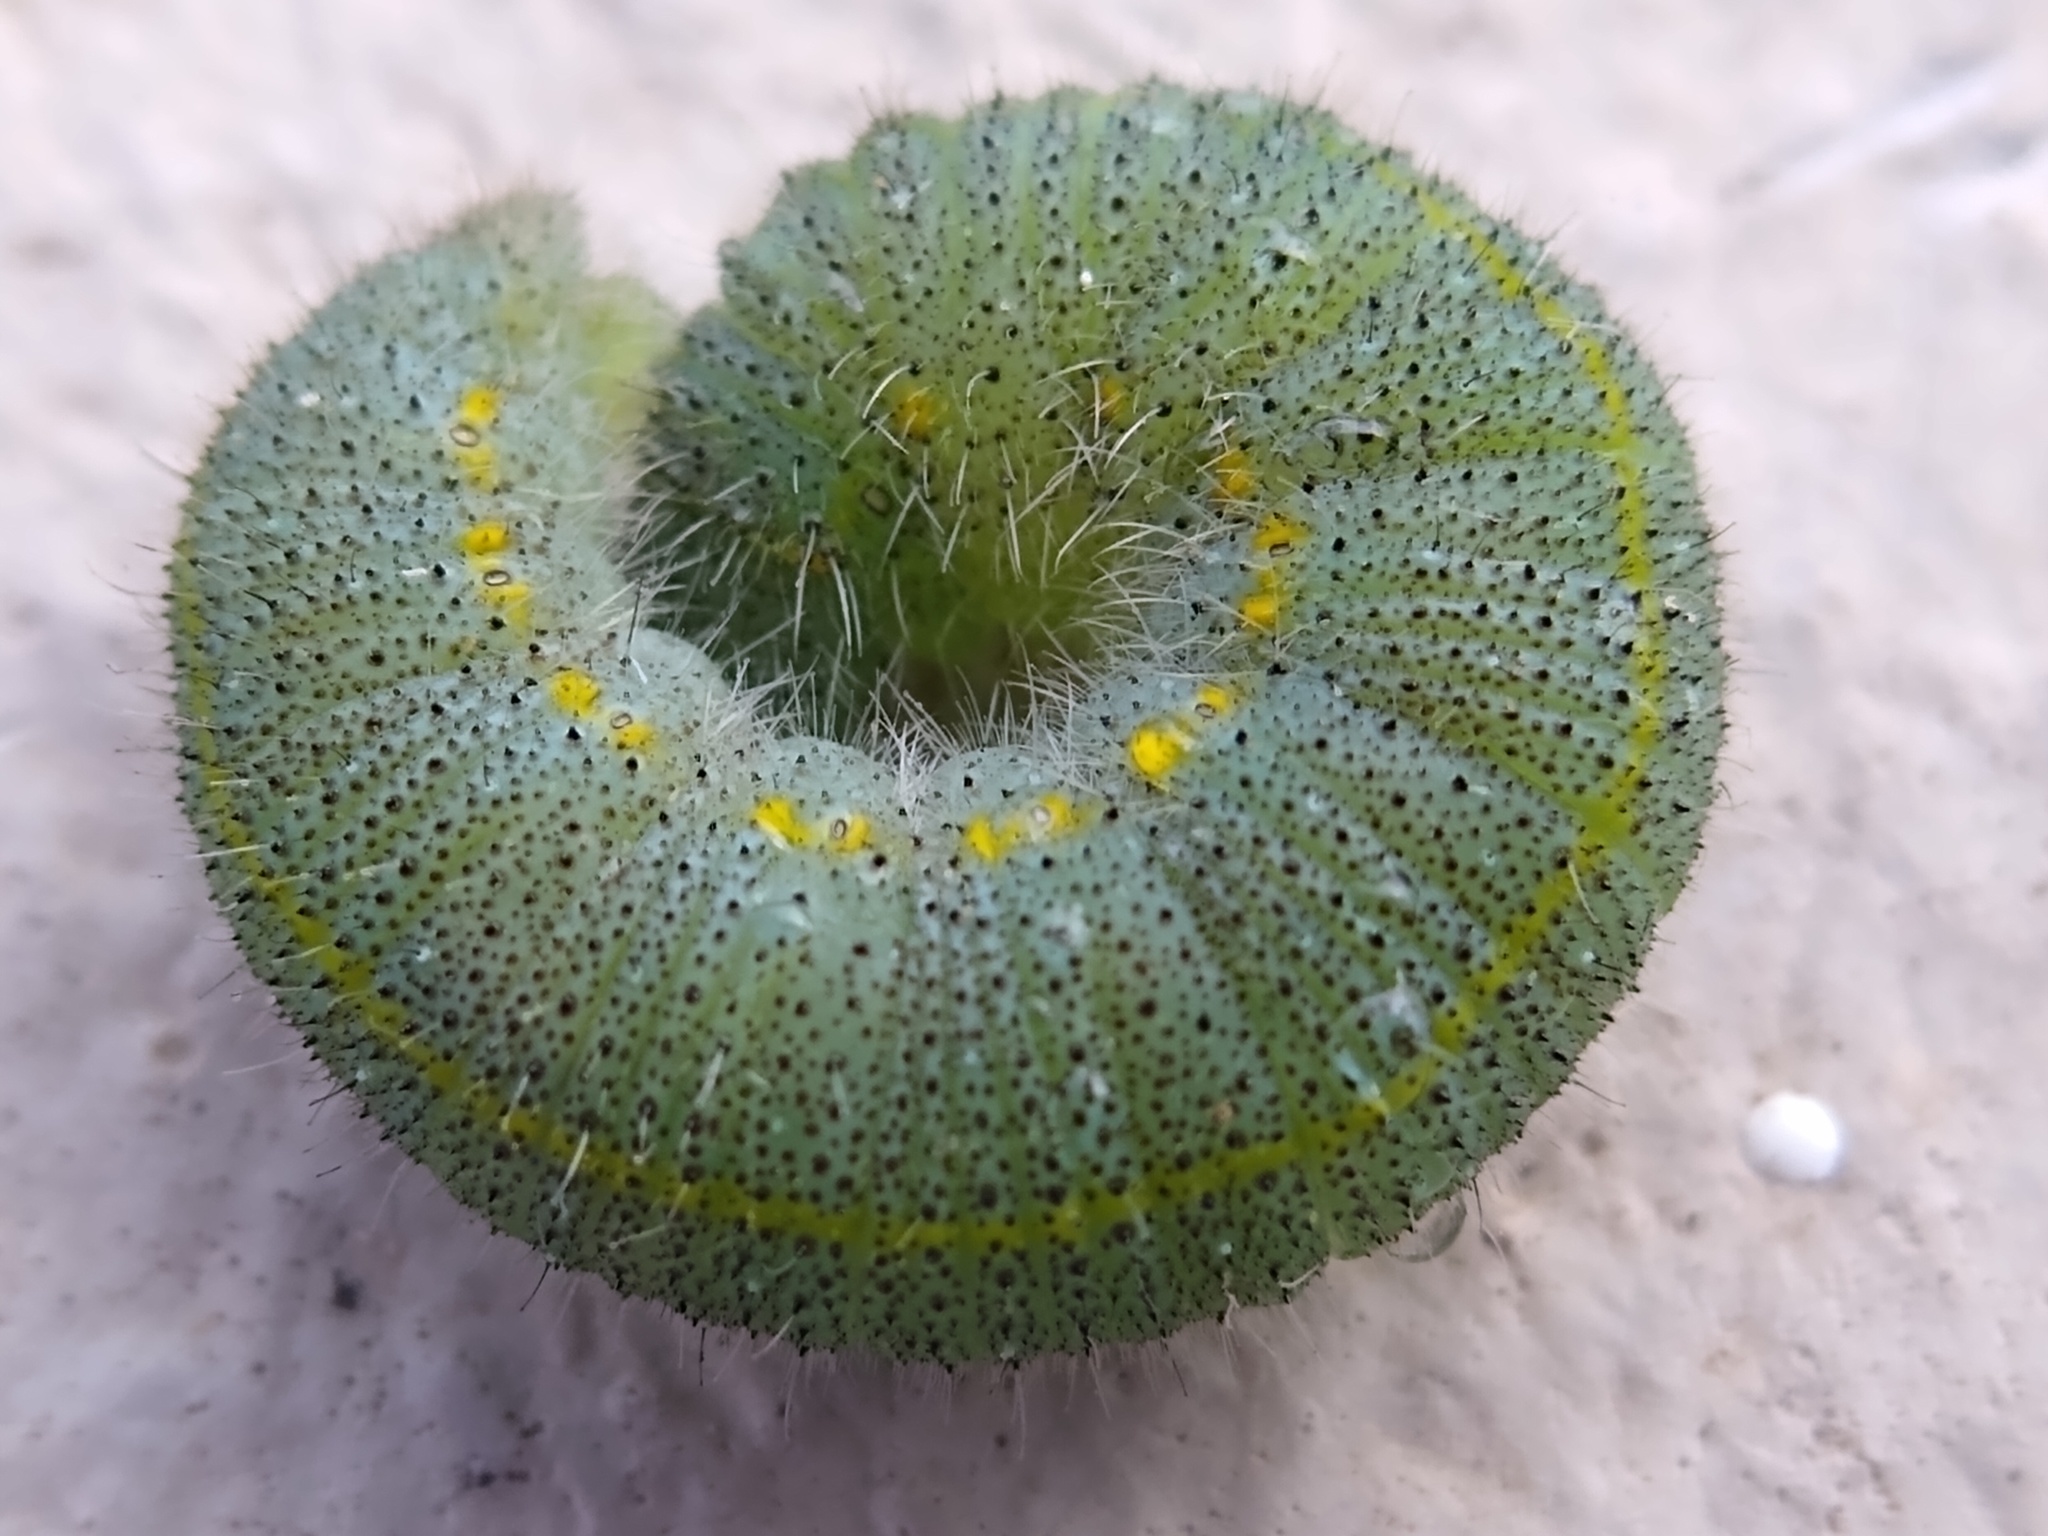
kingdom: Animalia
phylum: Arthropoda
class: Insecta
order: Lepidoptera
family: Pieridae
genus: Pieris
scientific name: Pieris rapae
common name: Small white
